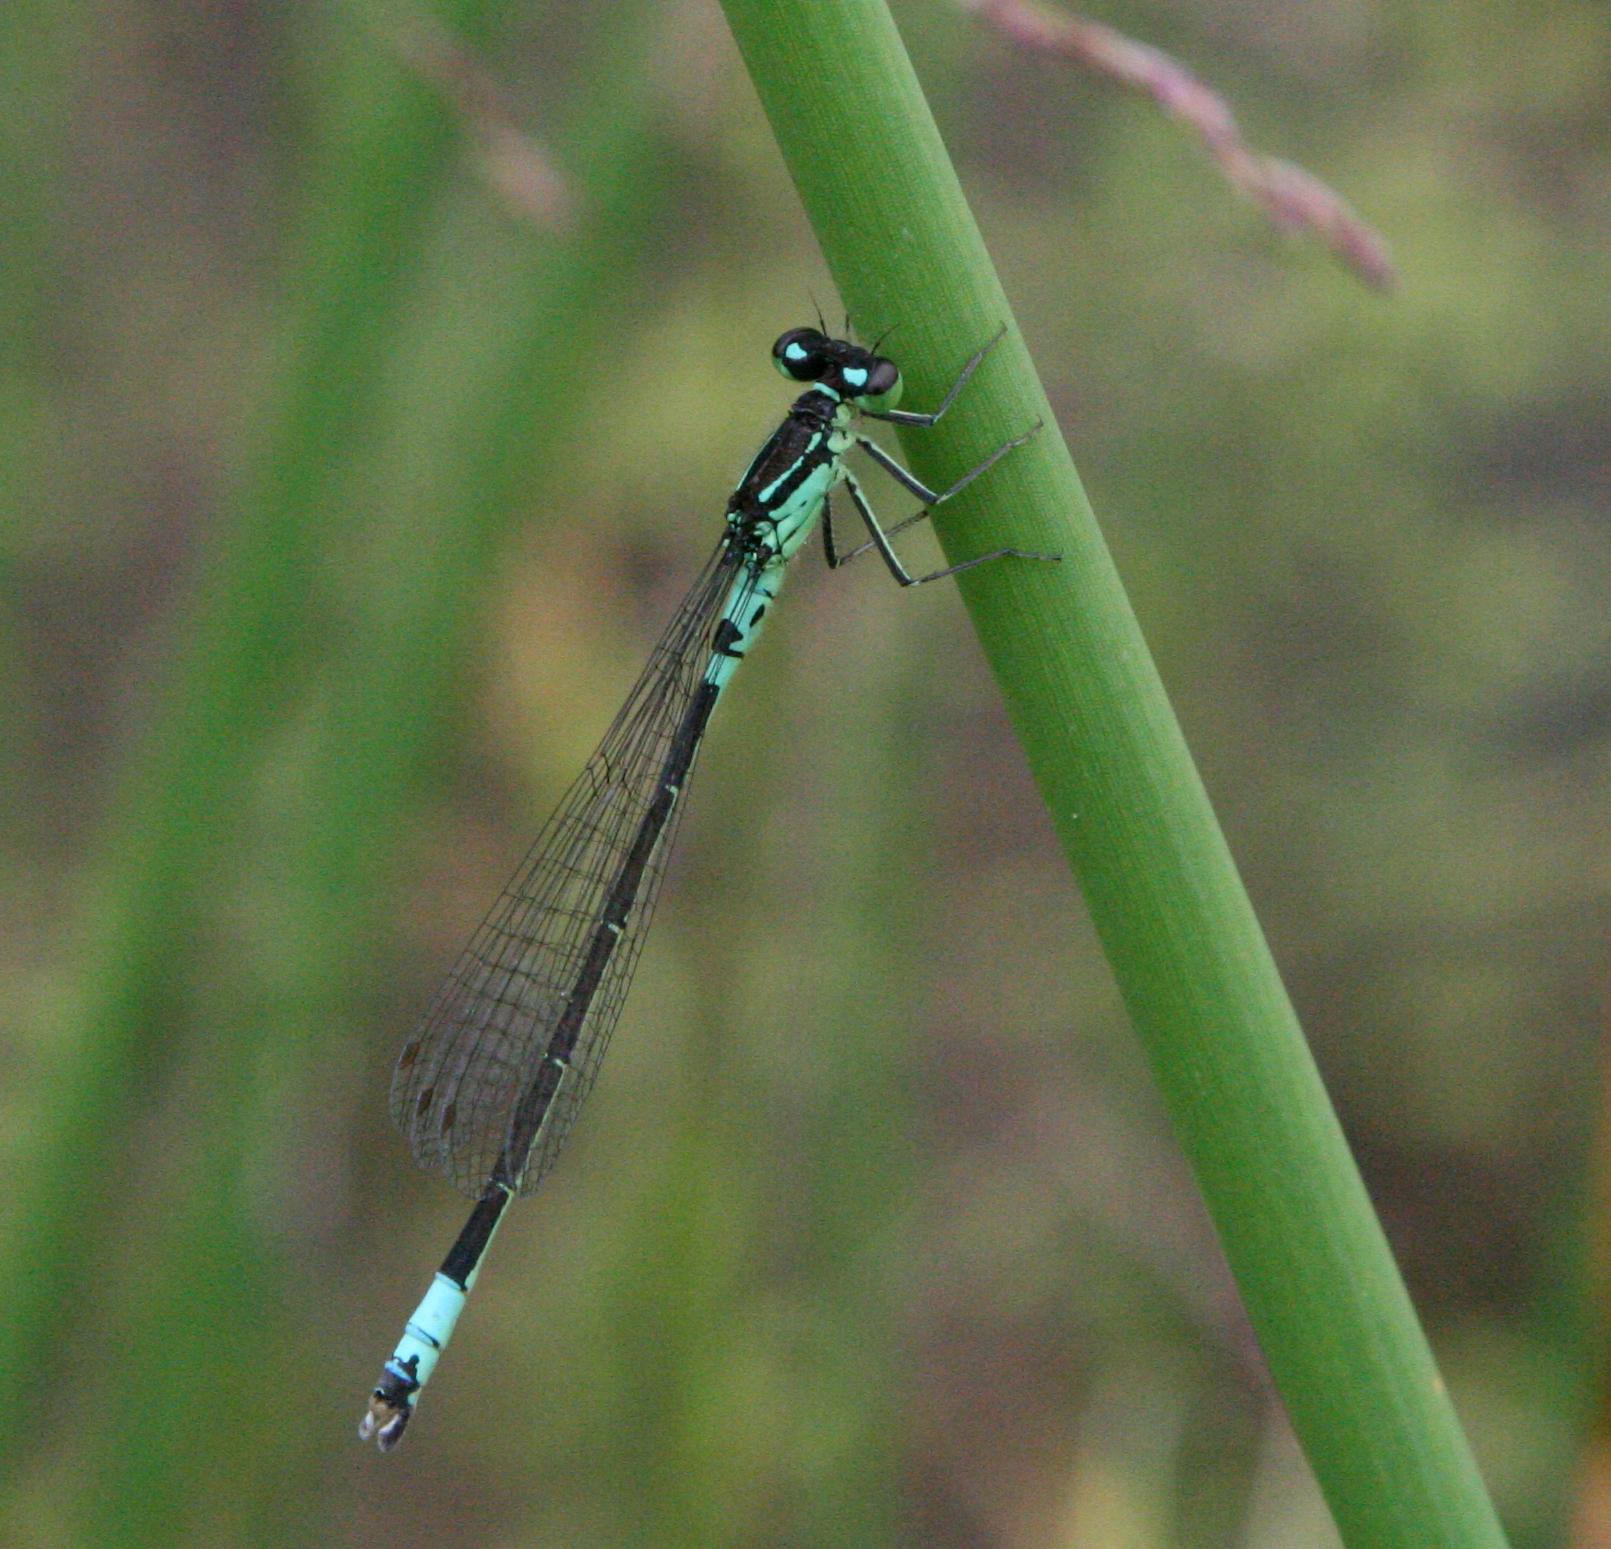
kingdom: Animalia
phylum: Arthropoda
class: Insecta
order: Odonata
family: Coenagrionidae
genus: Coenagrion
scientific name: Coenagrion armatum
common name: Dark bluet
